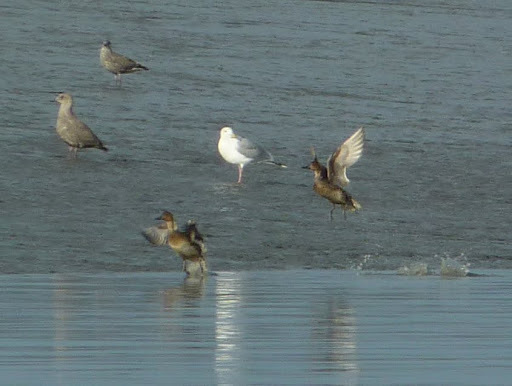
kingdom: Animalia
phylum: Chordata
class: Aves
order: Anseriformes
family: Anatidae
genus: Anas
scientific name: Anas acuta
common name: Northern pintail
